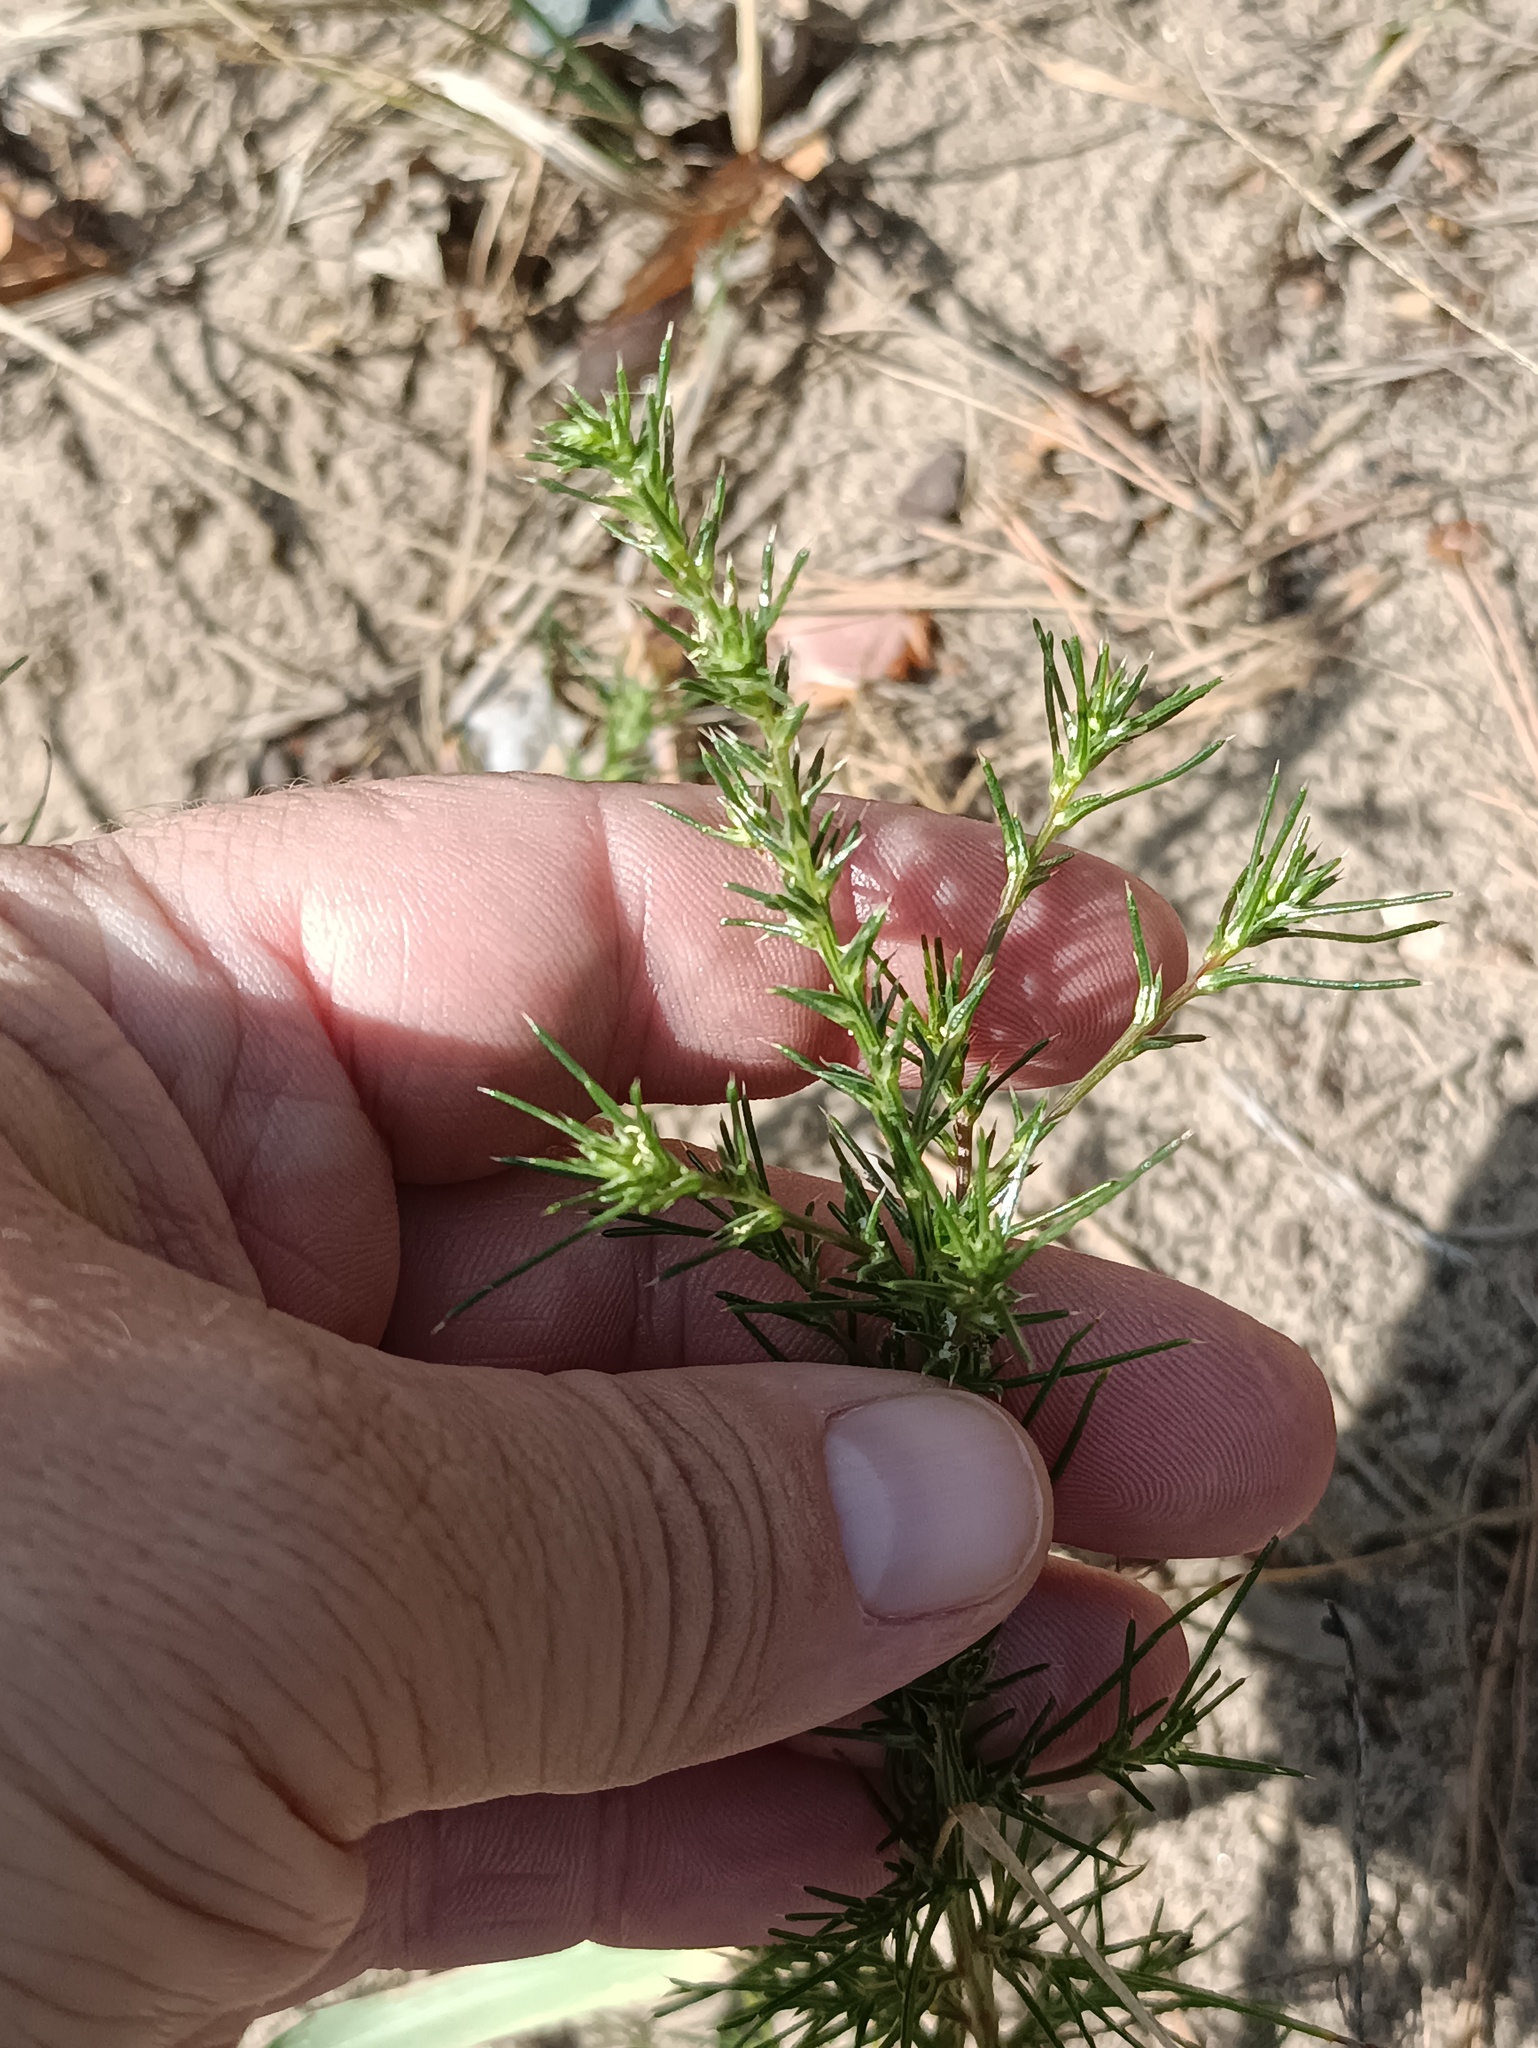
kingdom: Plantae
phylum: Tracheophyta
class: Magnoliopsida
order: Caryophyllales
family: Amaranthaceae
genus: Salsola
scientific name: Salsola collina
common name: Tumbleweed
